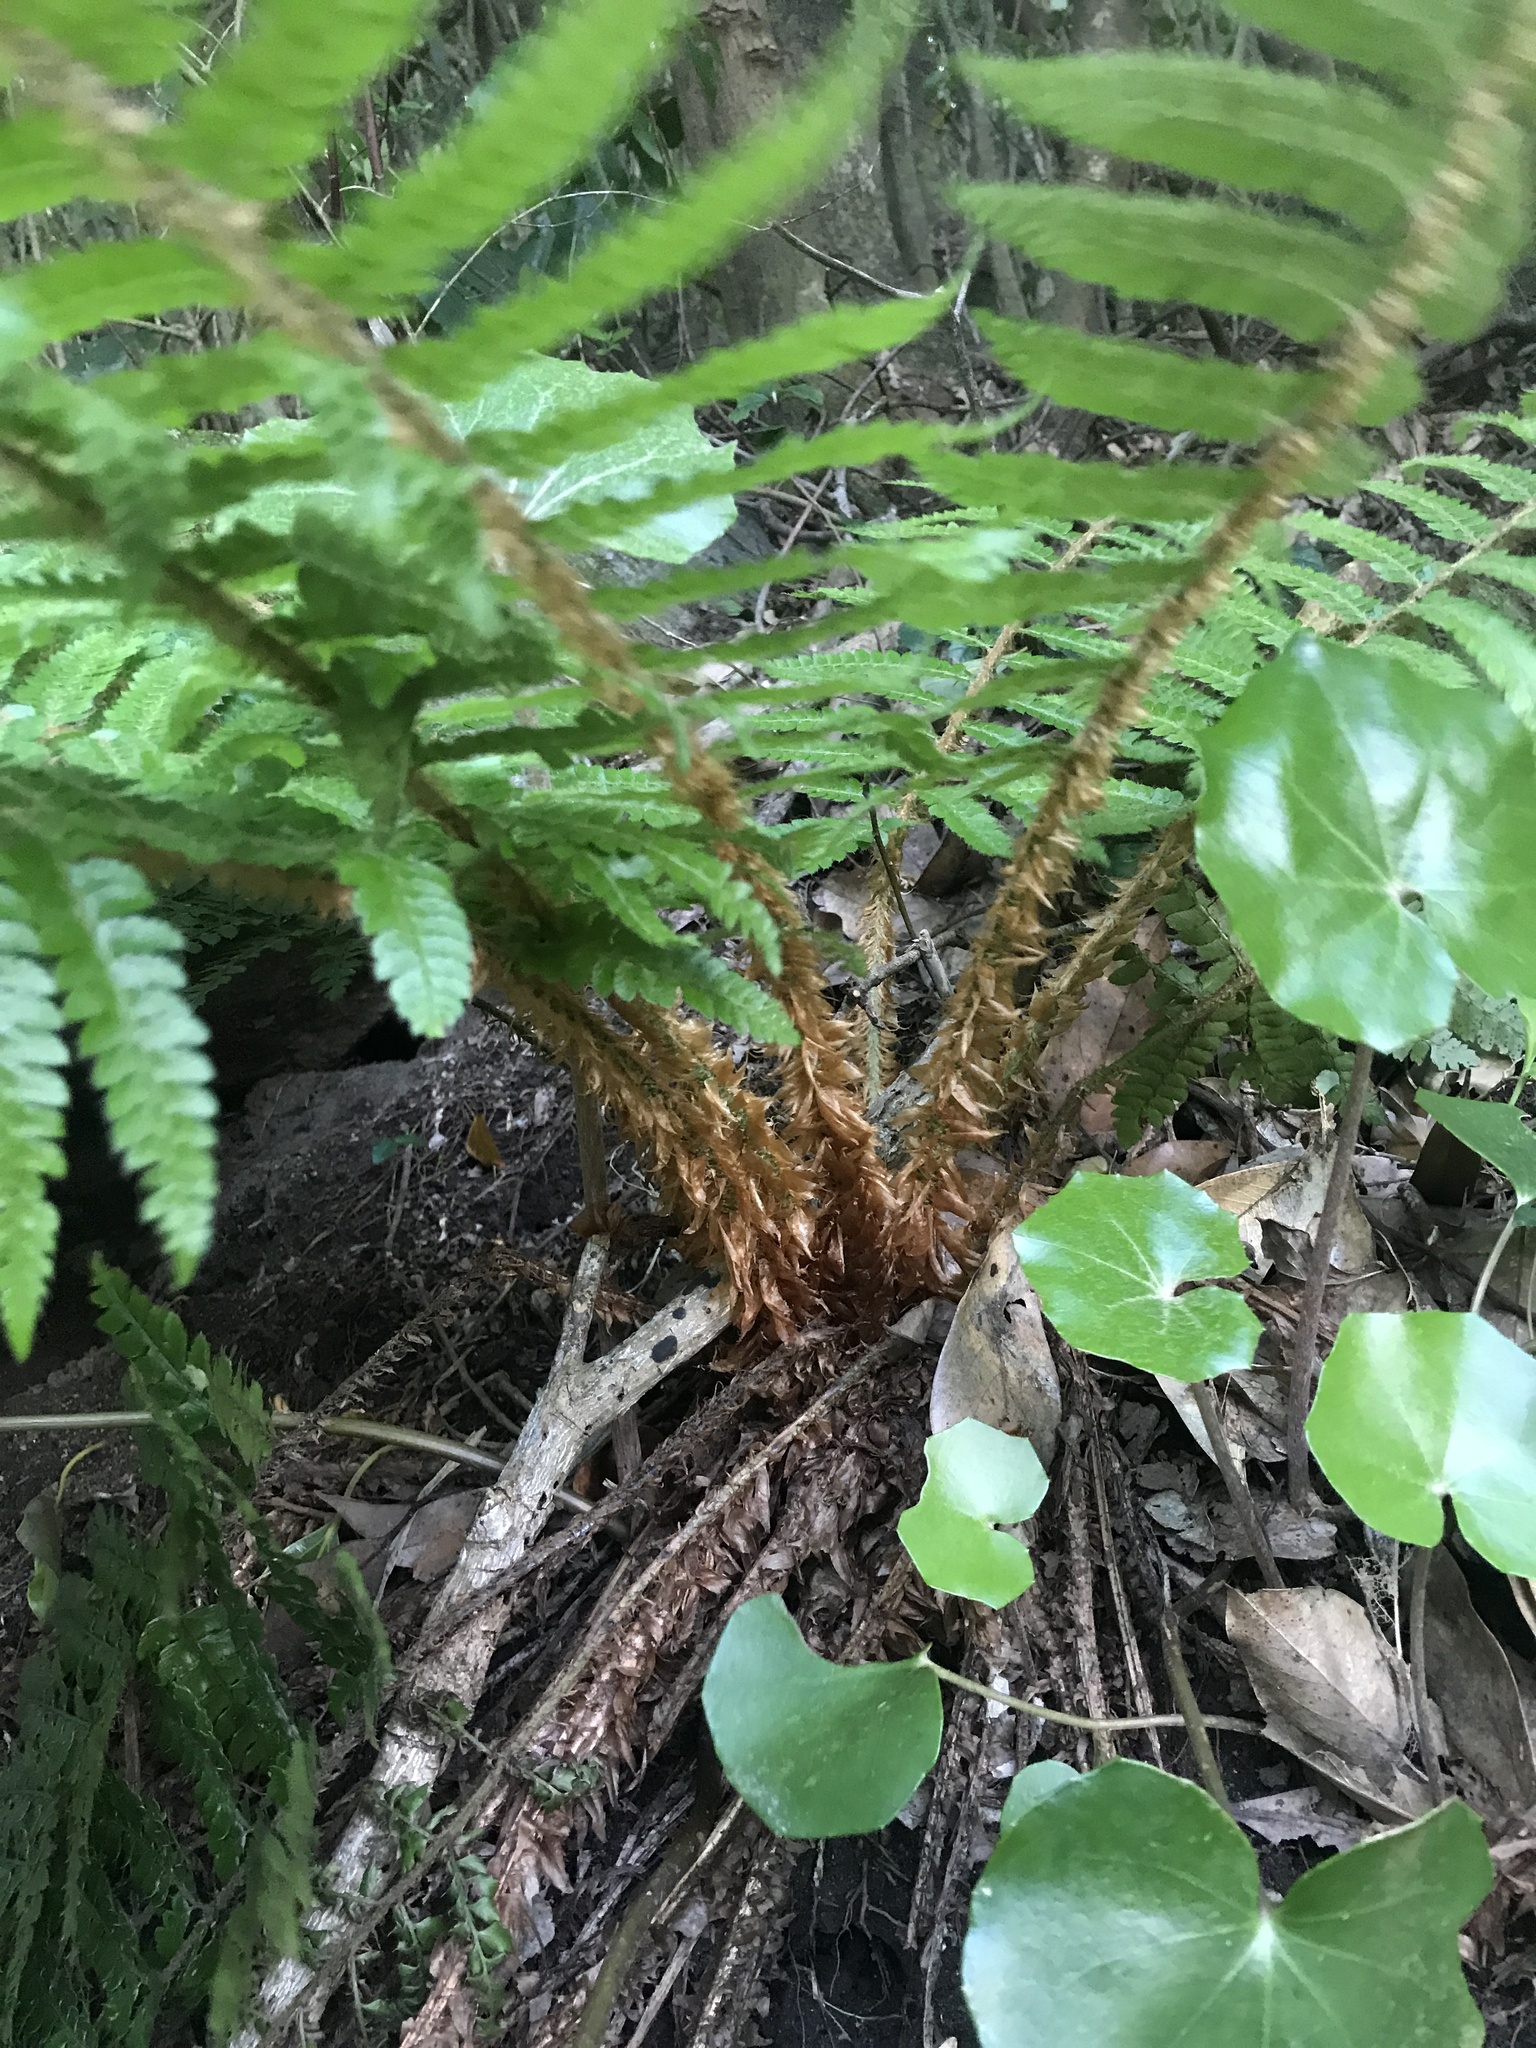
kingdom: Plantae
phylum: Tracheophyta
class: Polypodiopsida
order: Polypodiales
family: Dryopteridaceae
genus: Polystichum
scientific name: Polystichum luctuosum
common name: Korean rockfern
